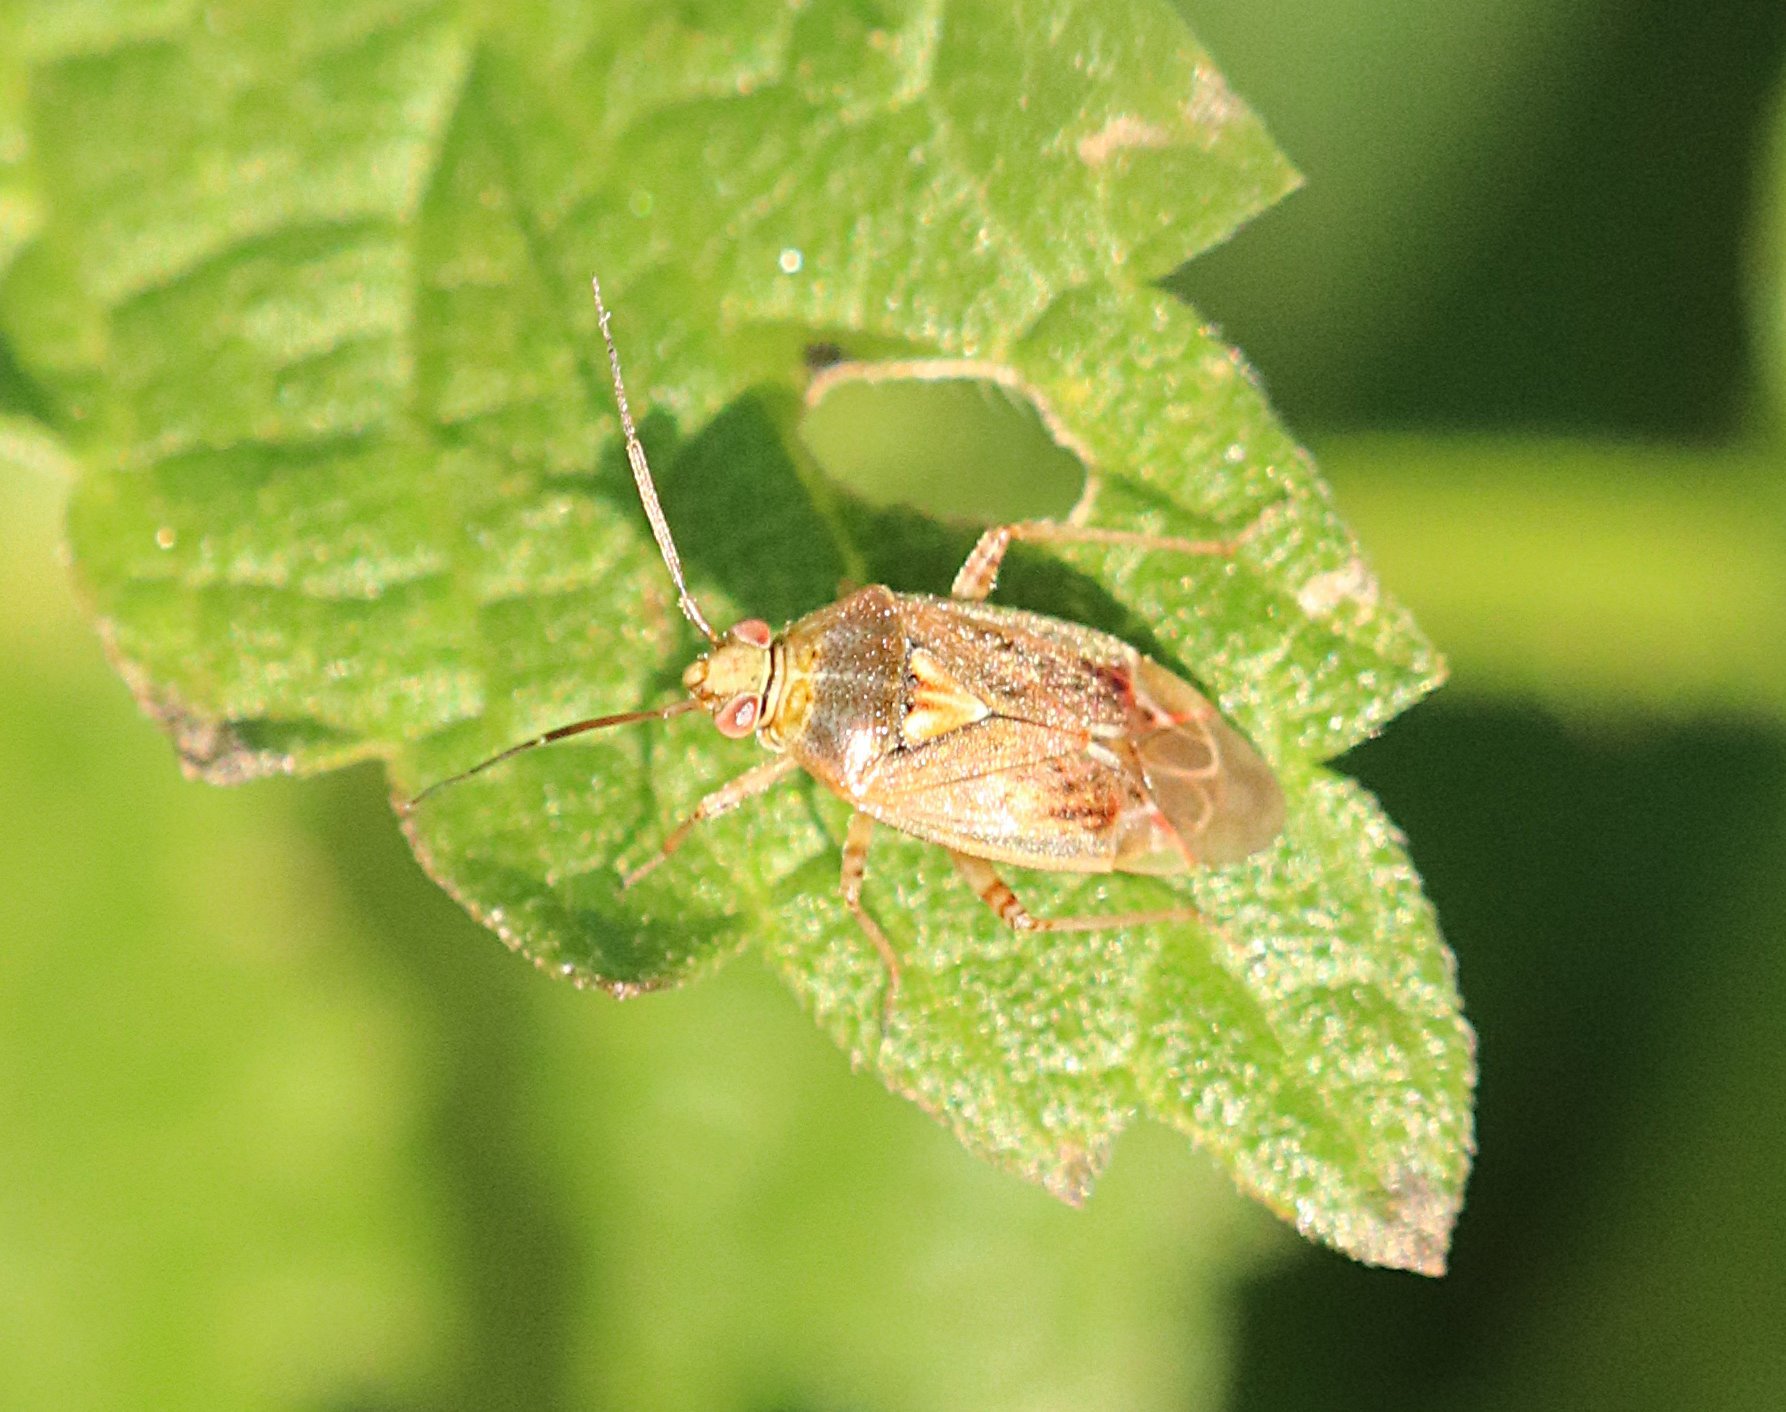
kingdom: Animalia
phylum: Arthropoda
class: Insecta
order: Hemiptera
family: Miridae
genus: Lygus
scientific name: Lygus rugulipennis
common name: European tarnished plant bug
